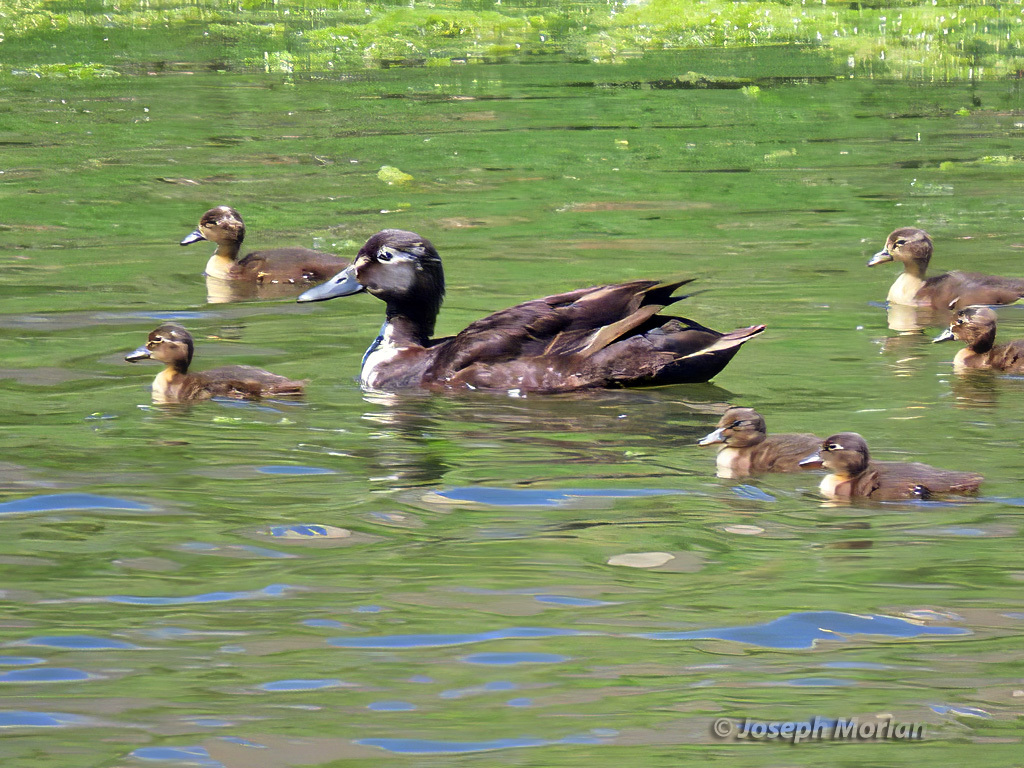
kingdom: Animalia
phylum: Chordata
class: Aves
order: Anseriformes
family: Anatidae
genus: Anas
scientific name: Anas platyrhynchos
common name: Mallard
